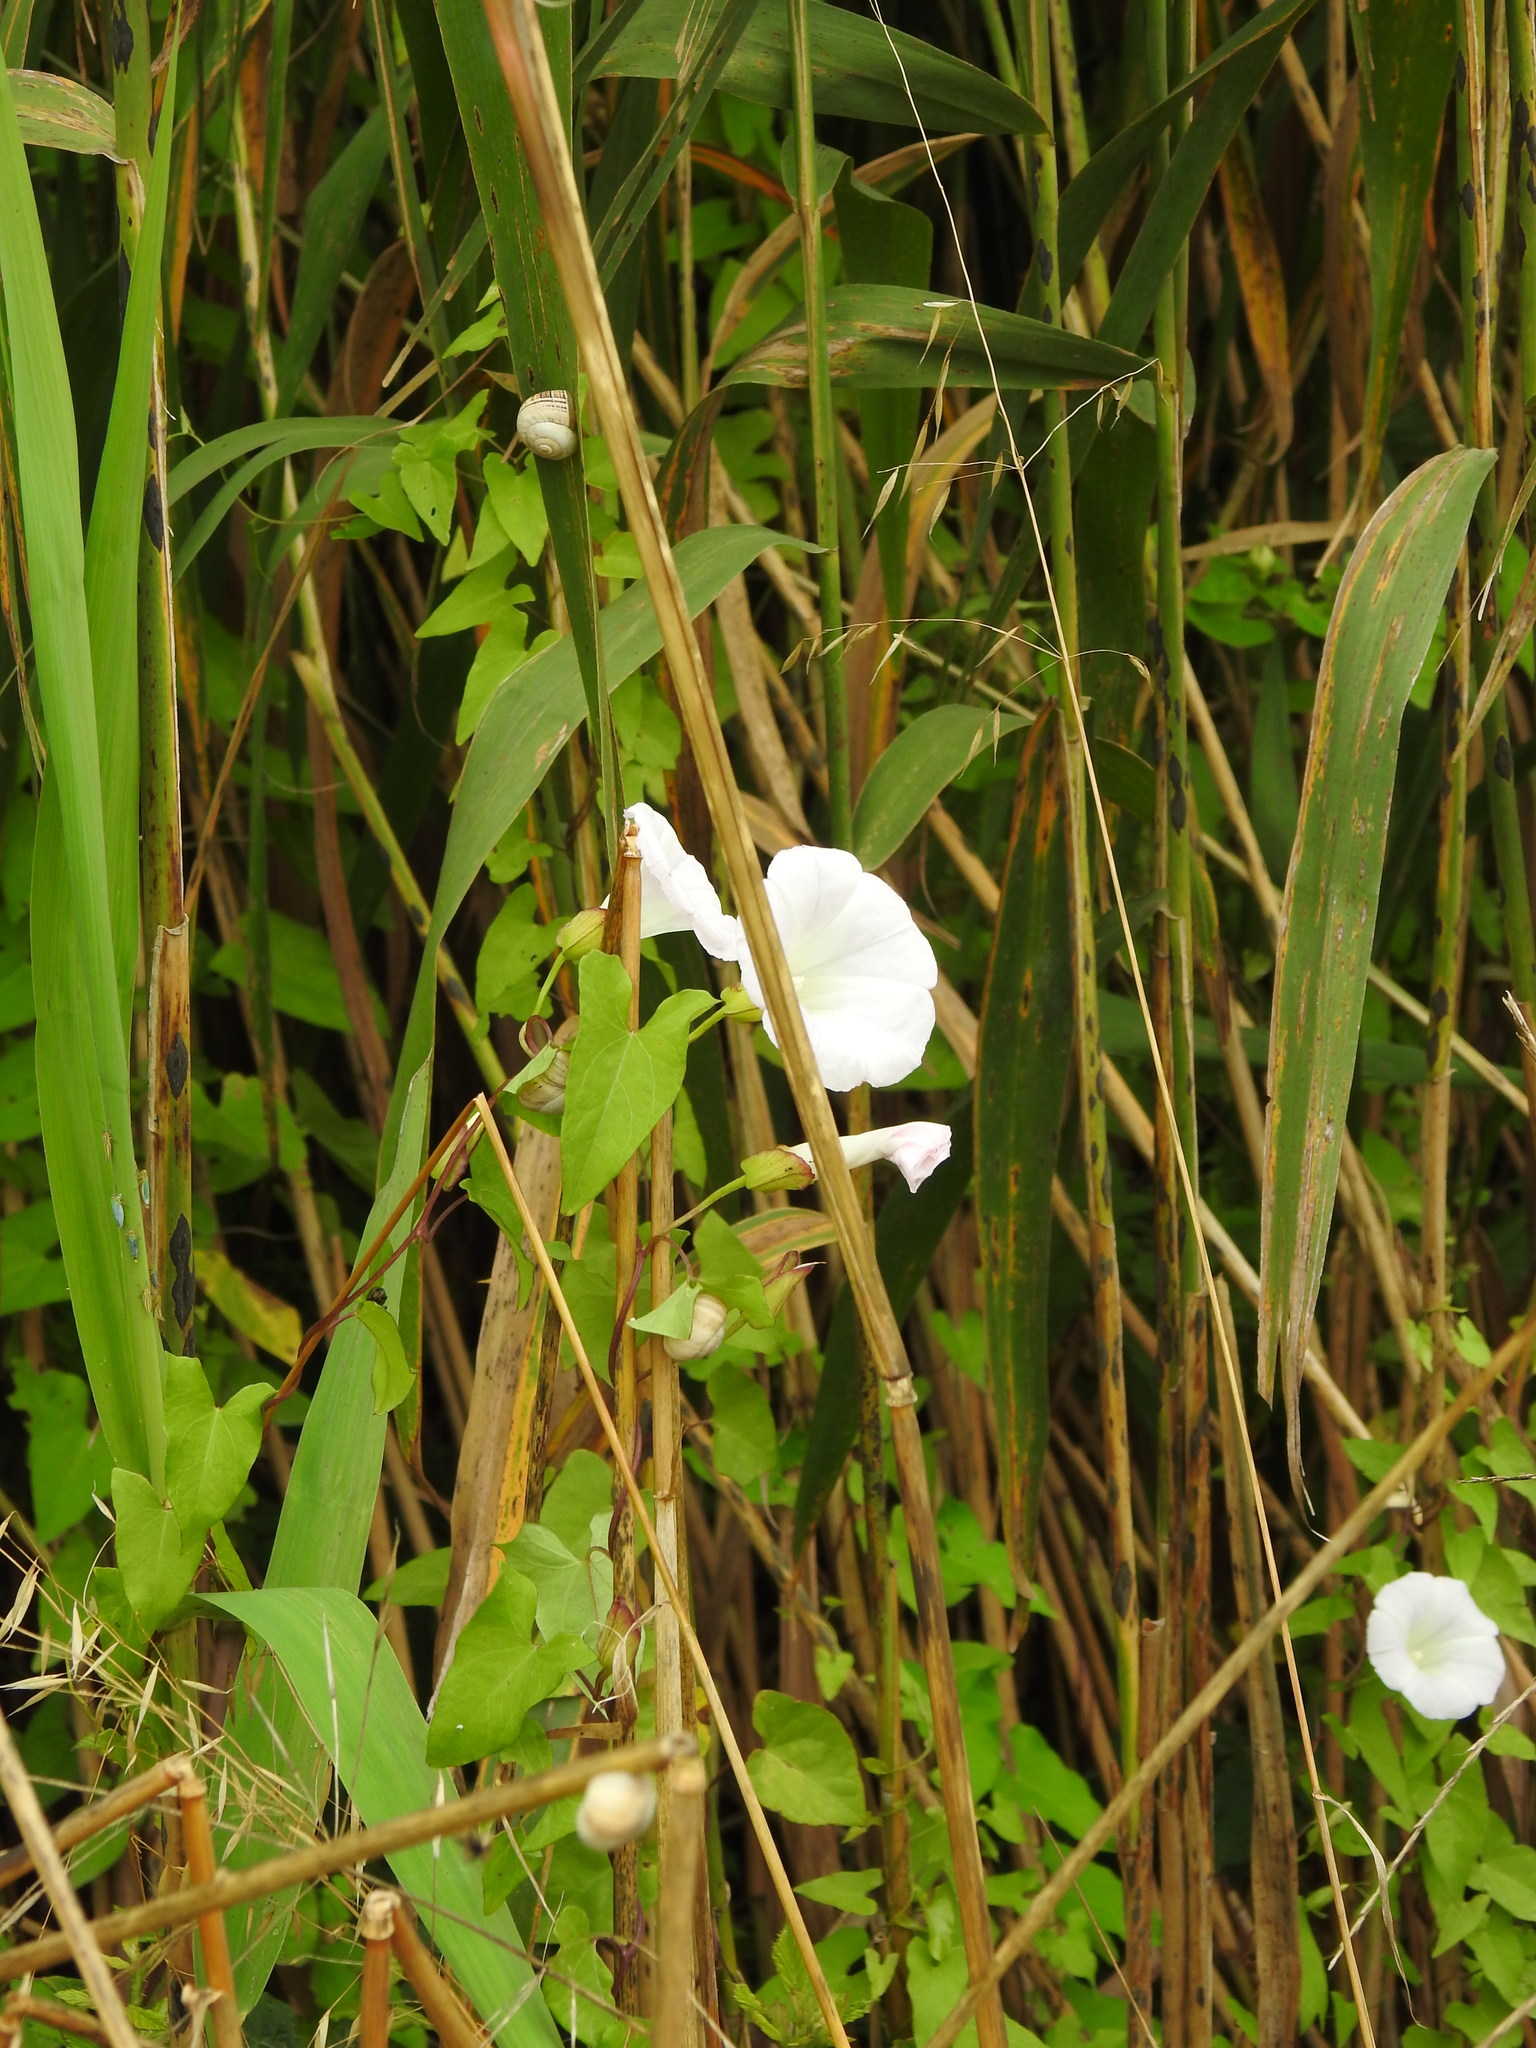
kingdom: Plantae
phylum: Tracheophyta
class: Magnoliopsida
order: Solanales
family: Convolvulaceae
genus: Calystegia
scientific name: Calystegia sepium
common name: Hedge bindweed
